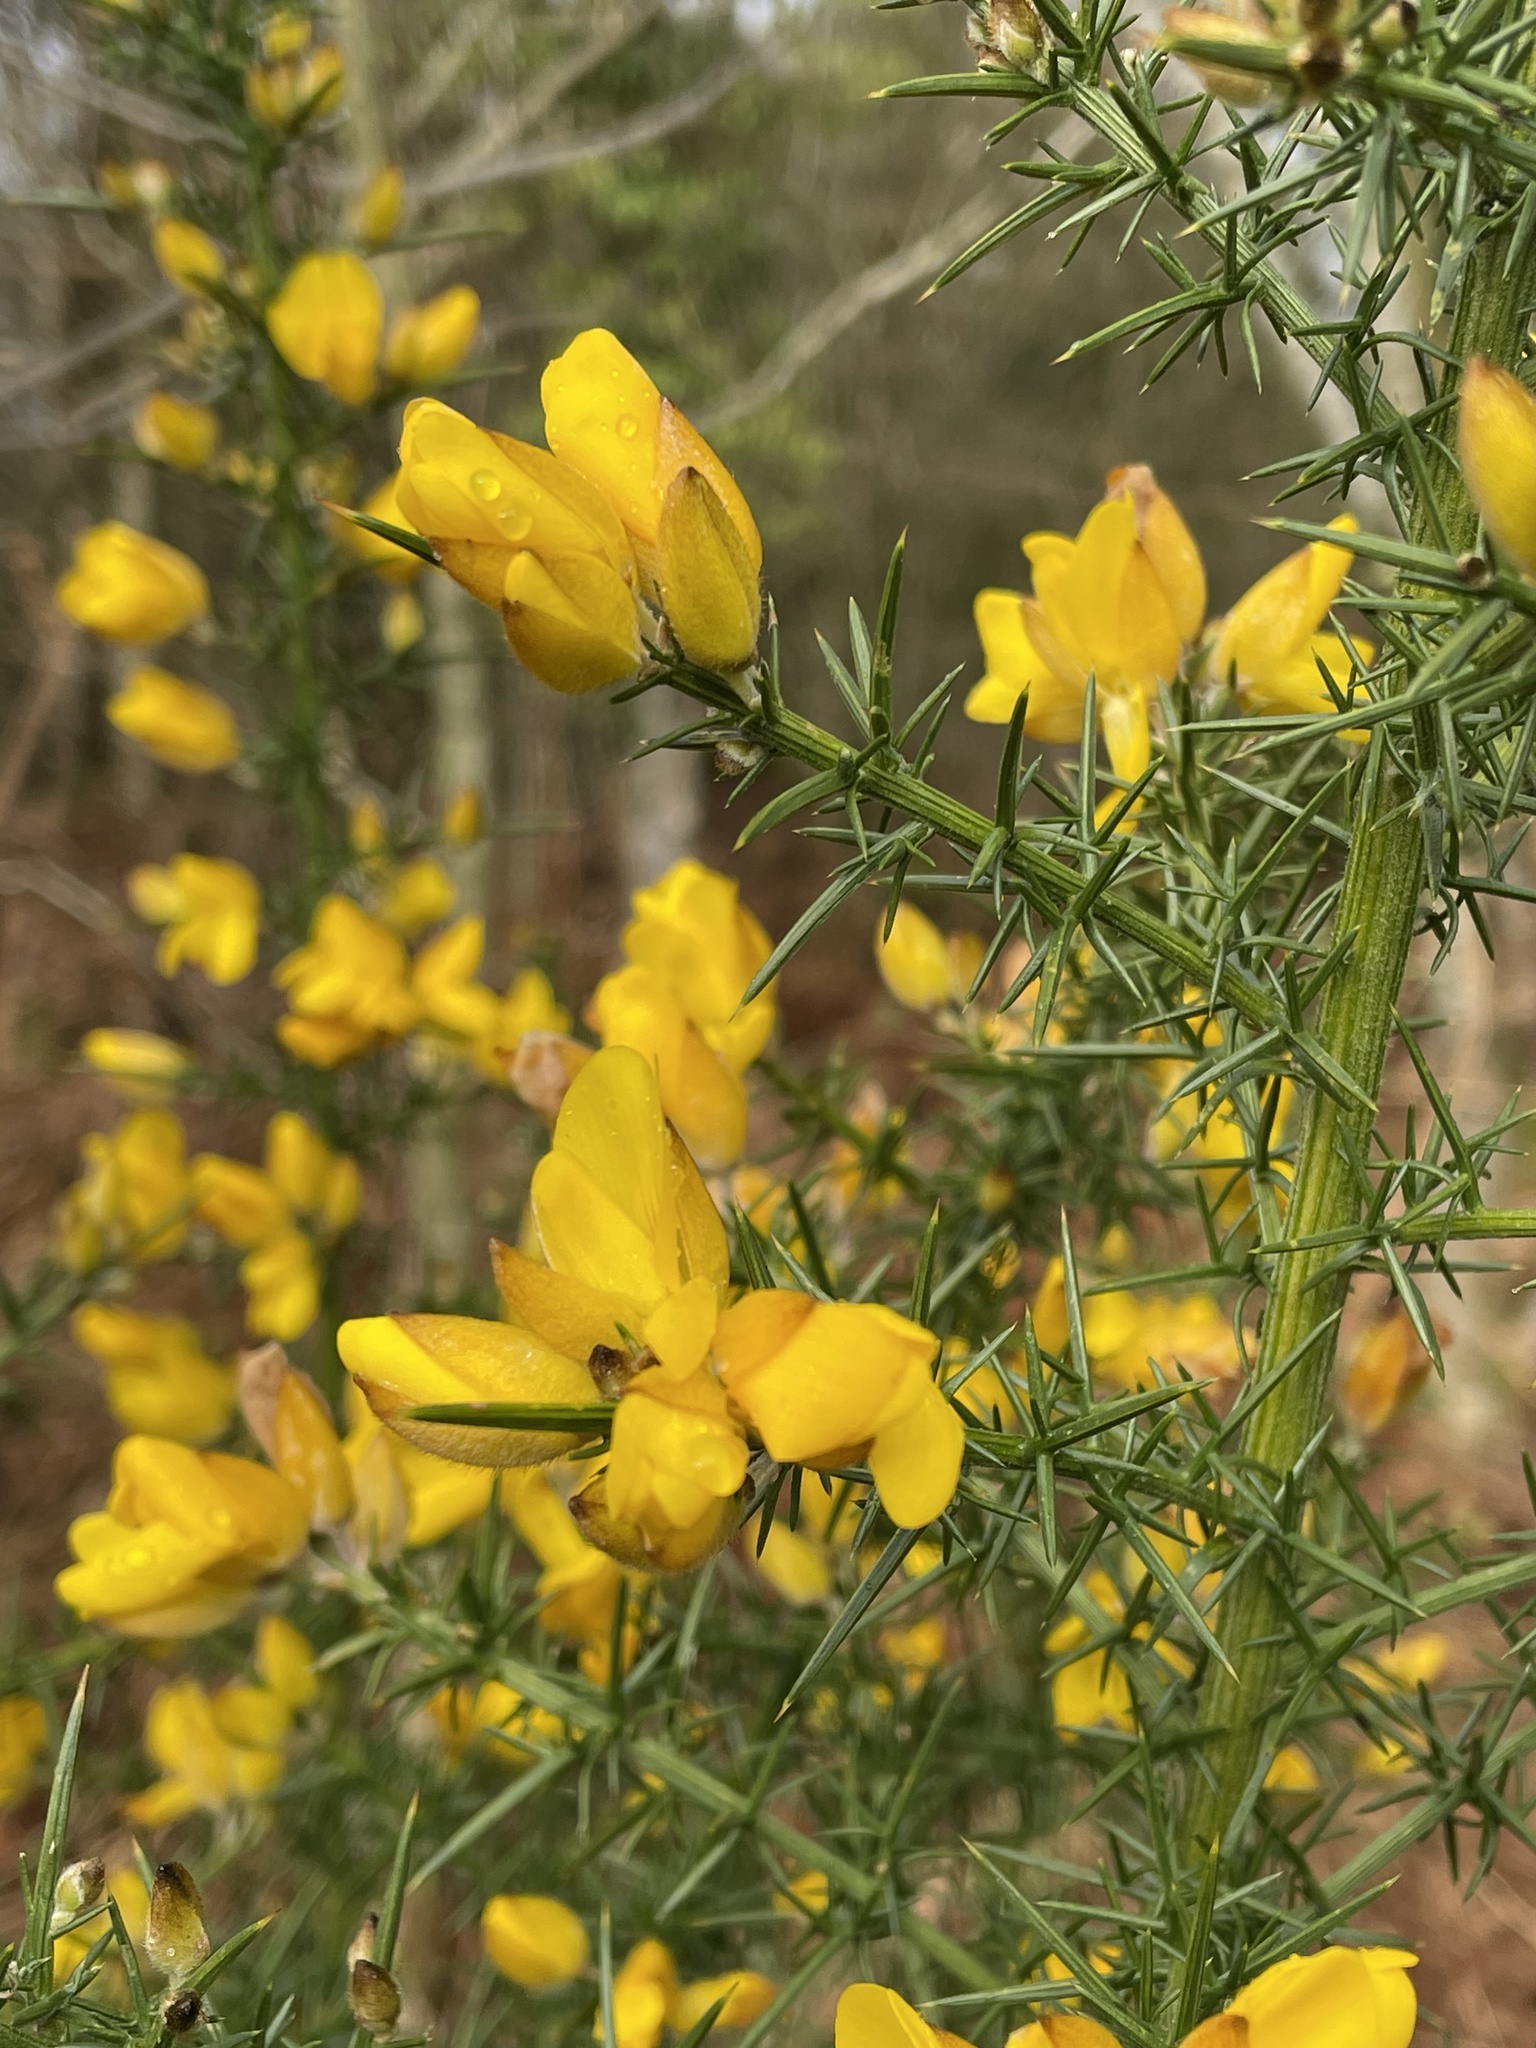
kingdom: Plantae
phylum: Tracheophyta
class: Magnoliopsida
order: Fabales
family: Fabaceae
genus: Ulex
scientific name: Ulex europaeus
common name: Common gorse
